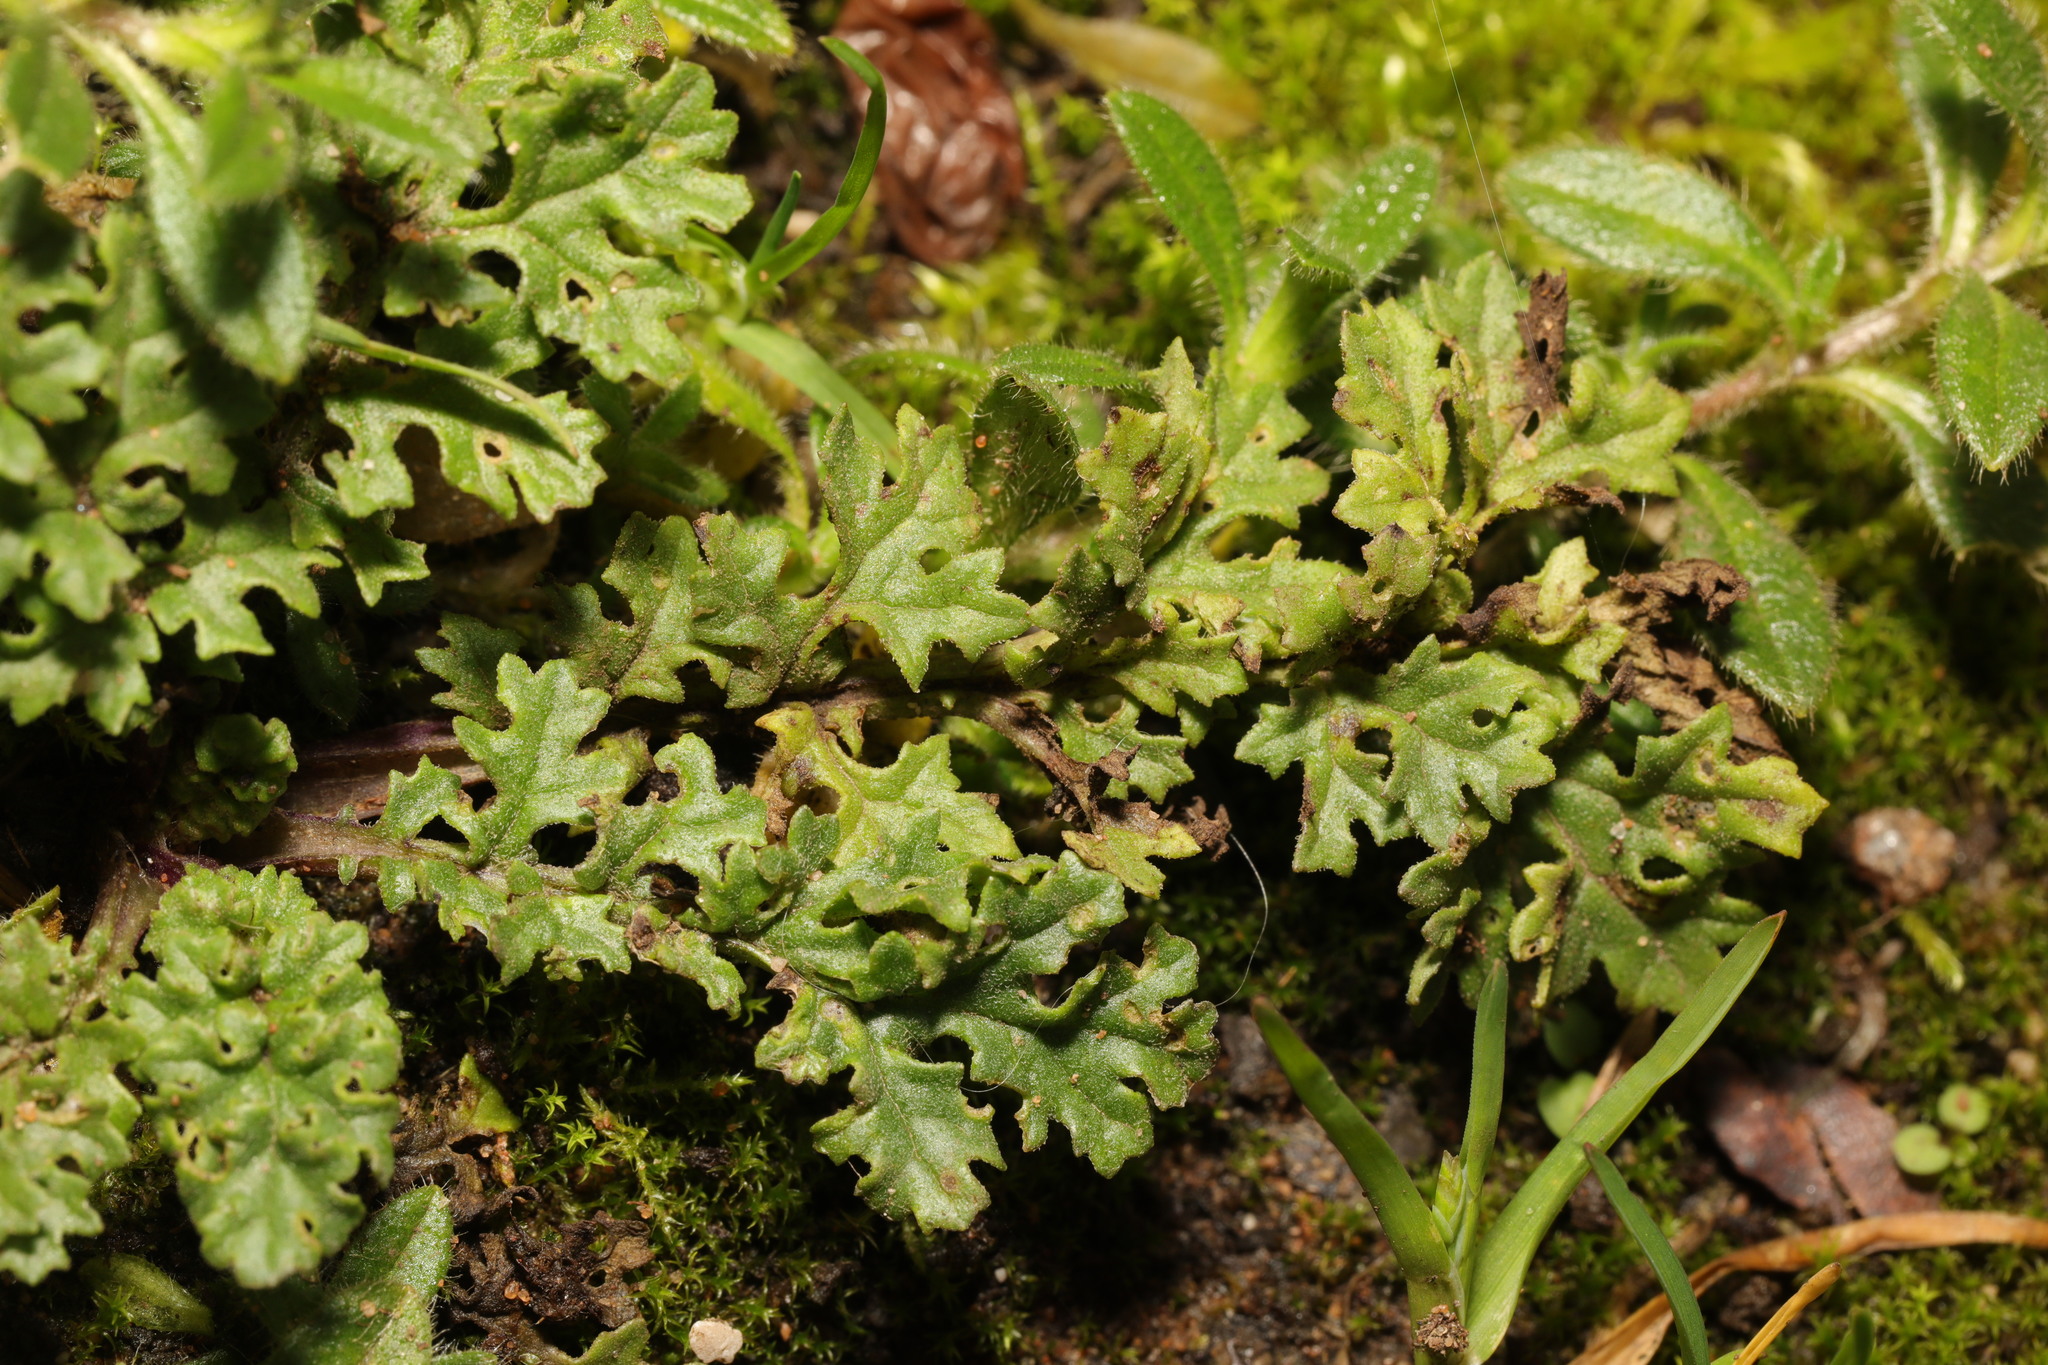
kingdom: Plantae
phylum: Tracheophyta
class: Magnoliopsida
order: Asterales
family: Asteraceae
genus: Jacobaea
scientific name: Jacobaea vulgaris
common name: Stinking willie
